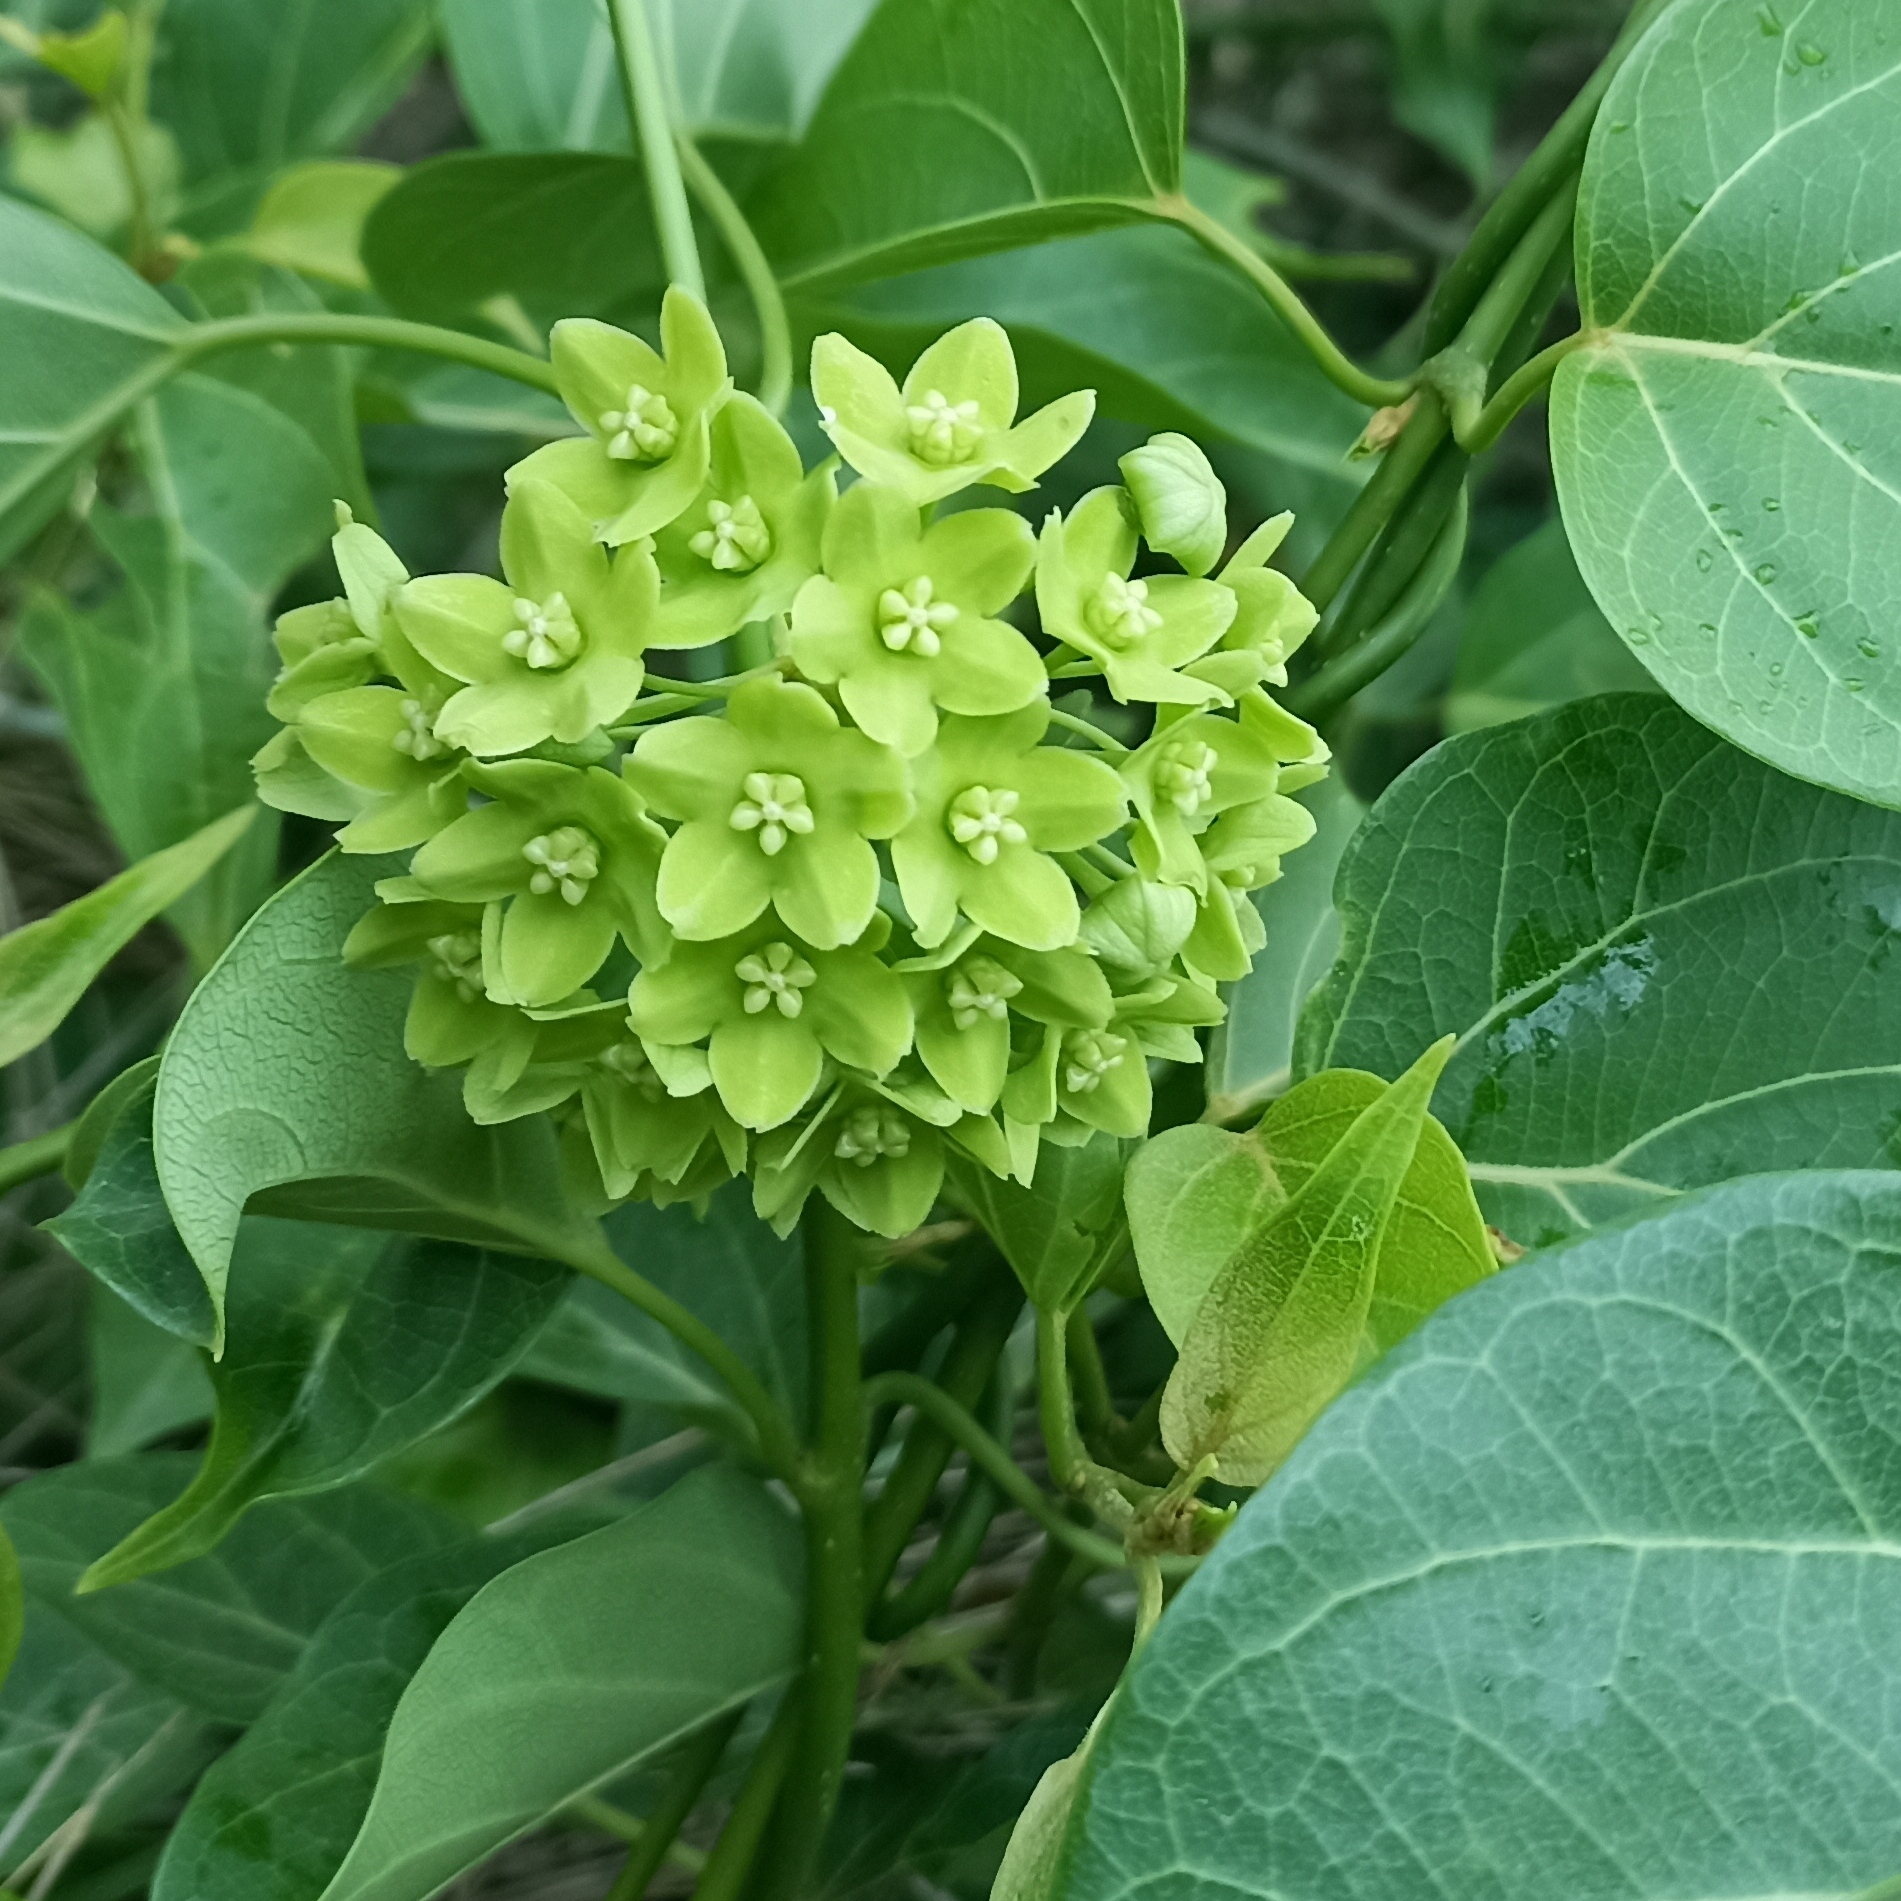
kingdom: Plantae
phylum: Tracheophyta
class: Magnoliopsida
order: Gentianales
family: Apocynaceae
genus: Stephanotis
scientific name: Stephanotis volubilis
